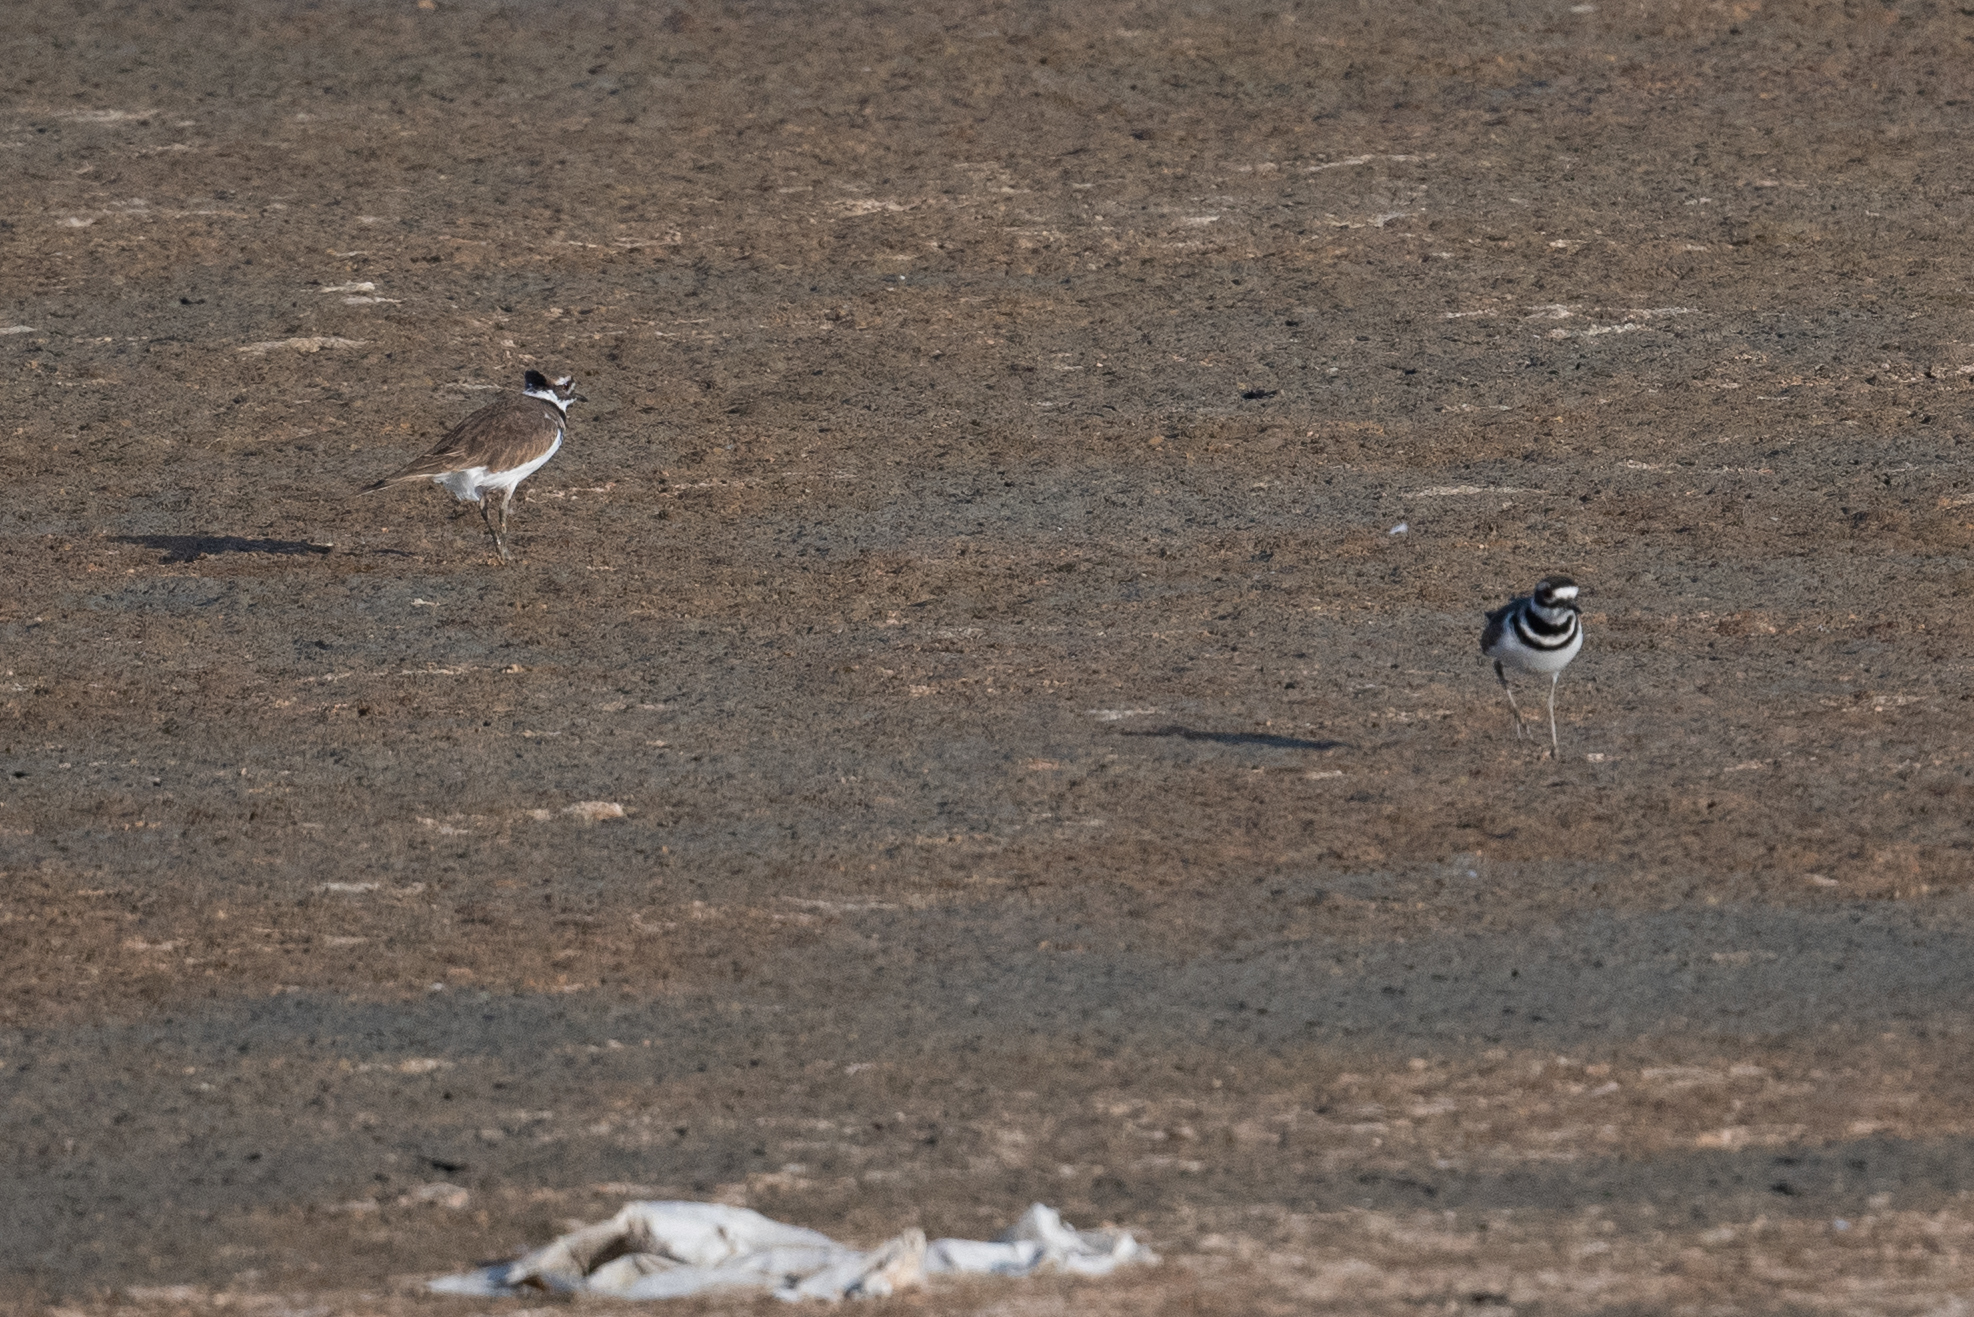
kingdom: Animalia
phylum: Chordata
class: Aves
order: Charadriiformes
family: Charadriidae
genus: Charadrius
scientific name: Charadrius vociferus
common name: Killdeer
